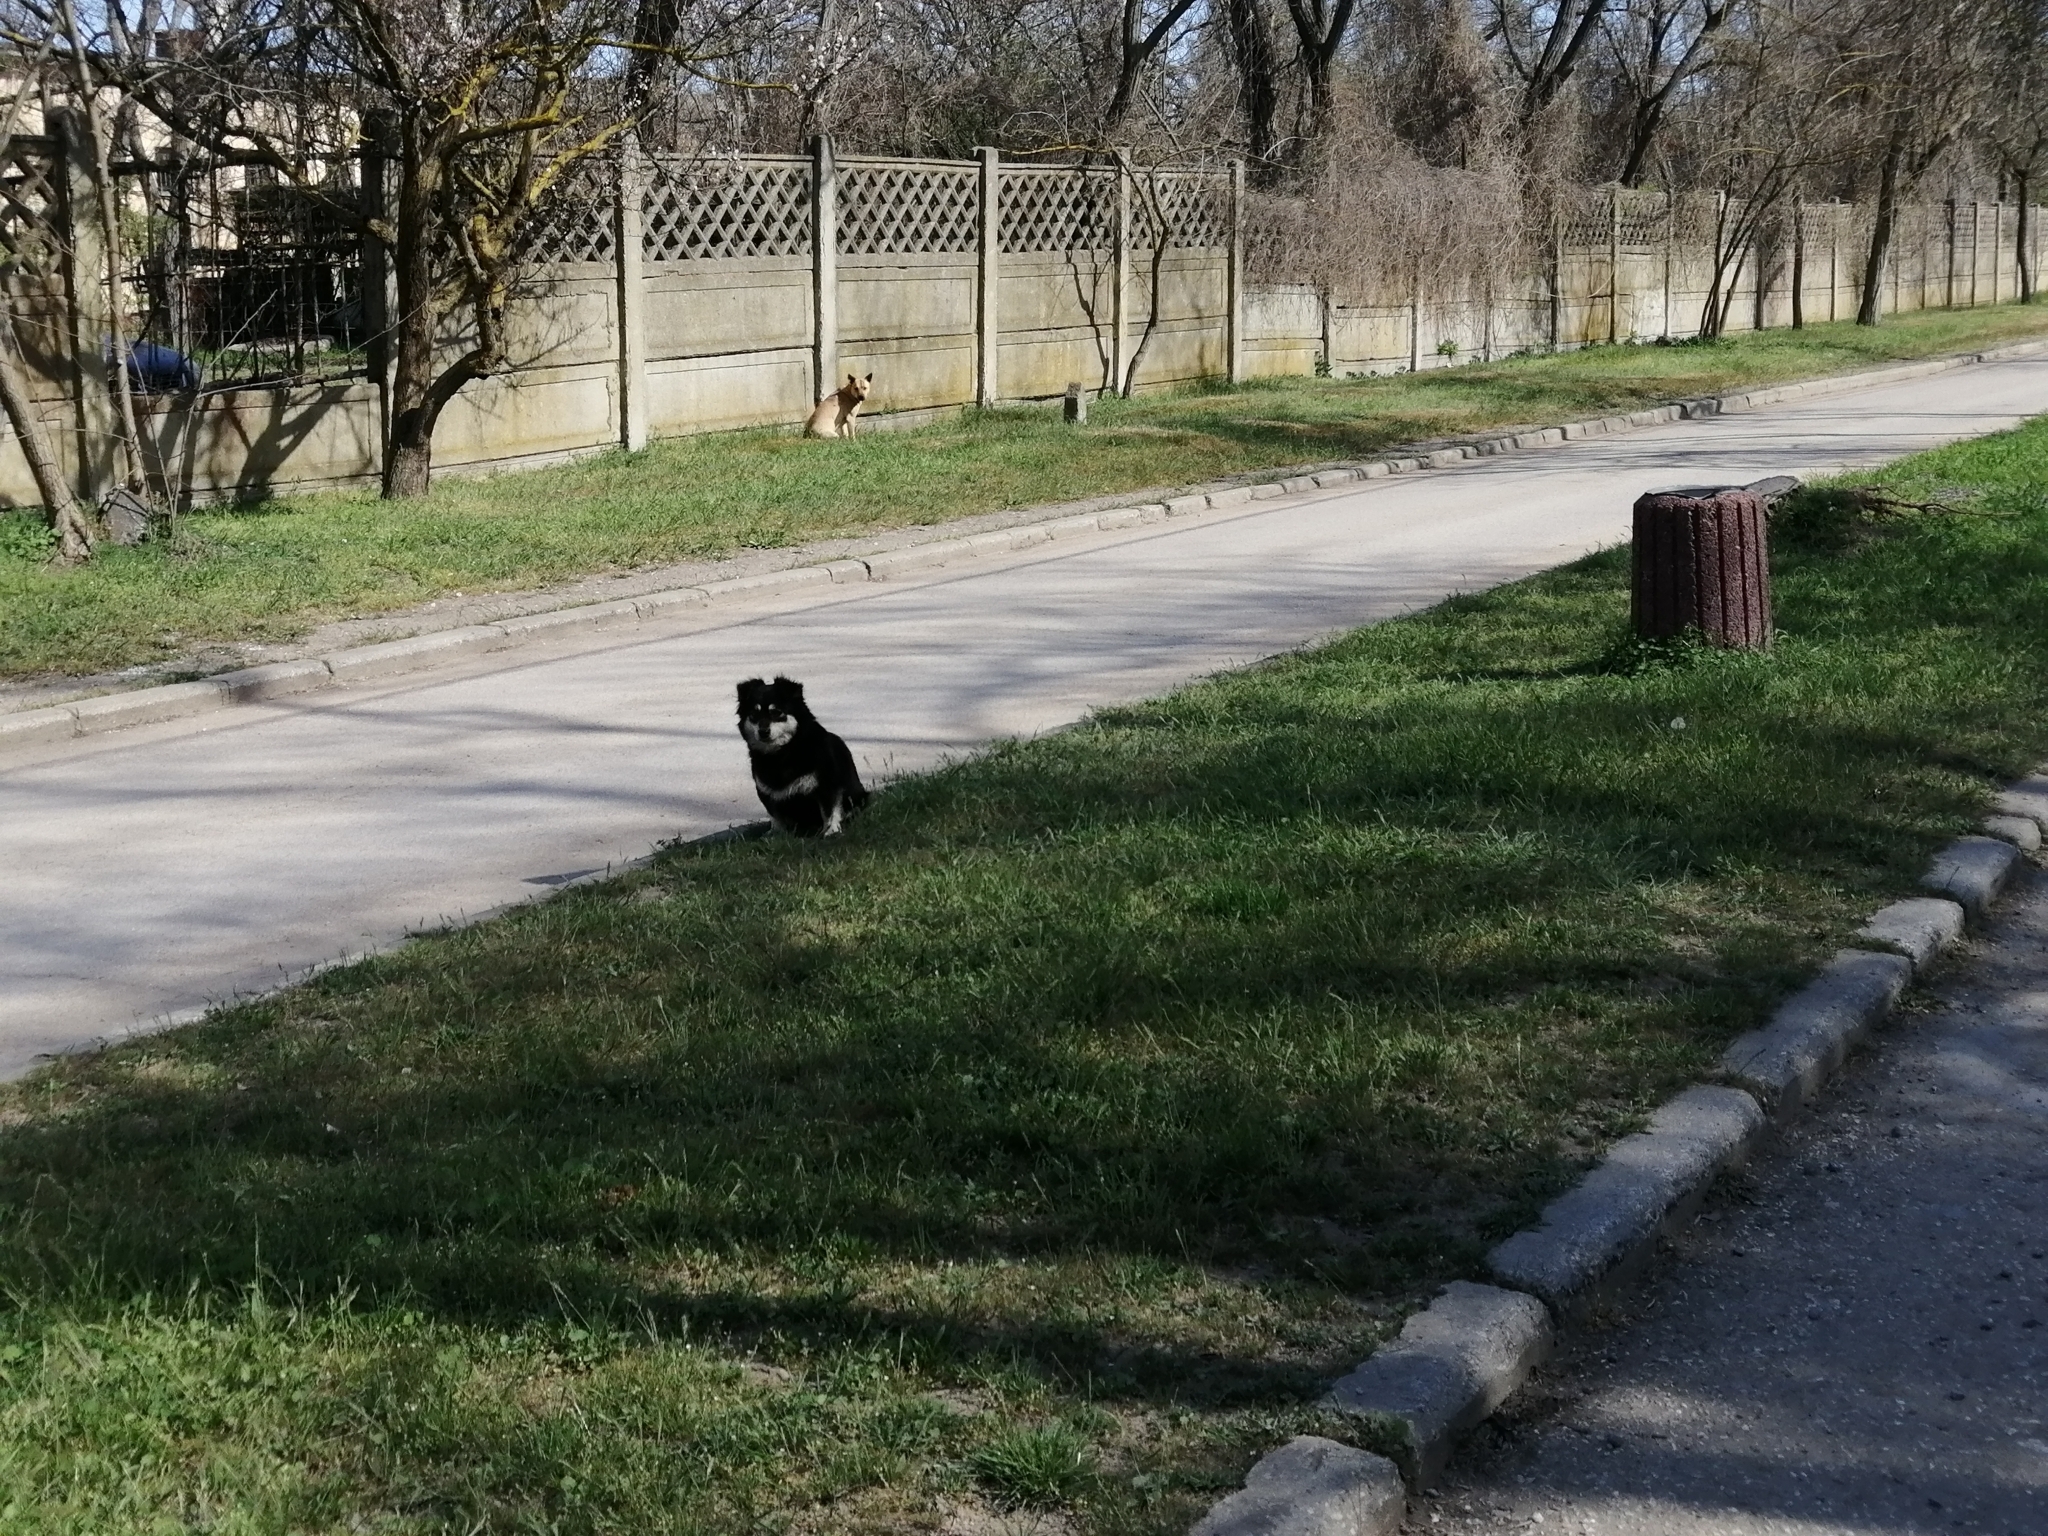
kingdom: Animalia
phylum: Chordata
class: Mammalia
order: Carnivora
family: Canidae
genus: Canis
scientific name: Canis lupus
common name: Gray wolf
